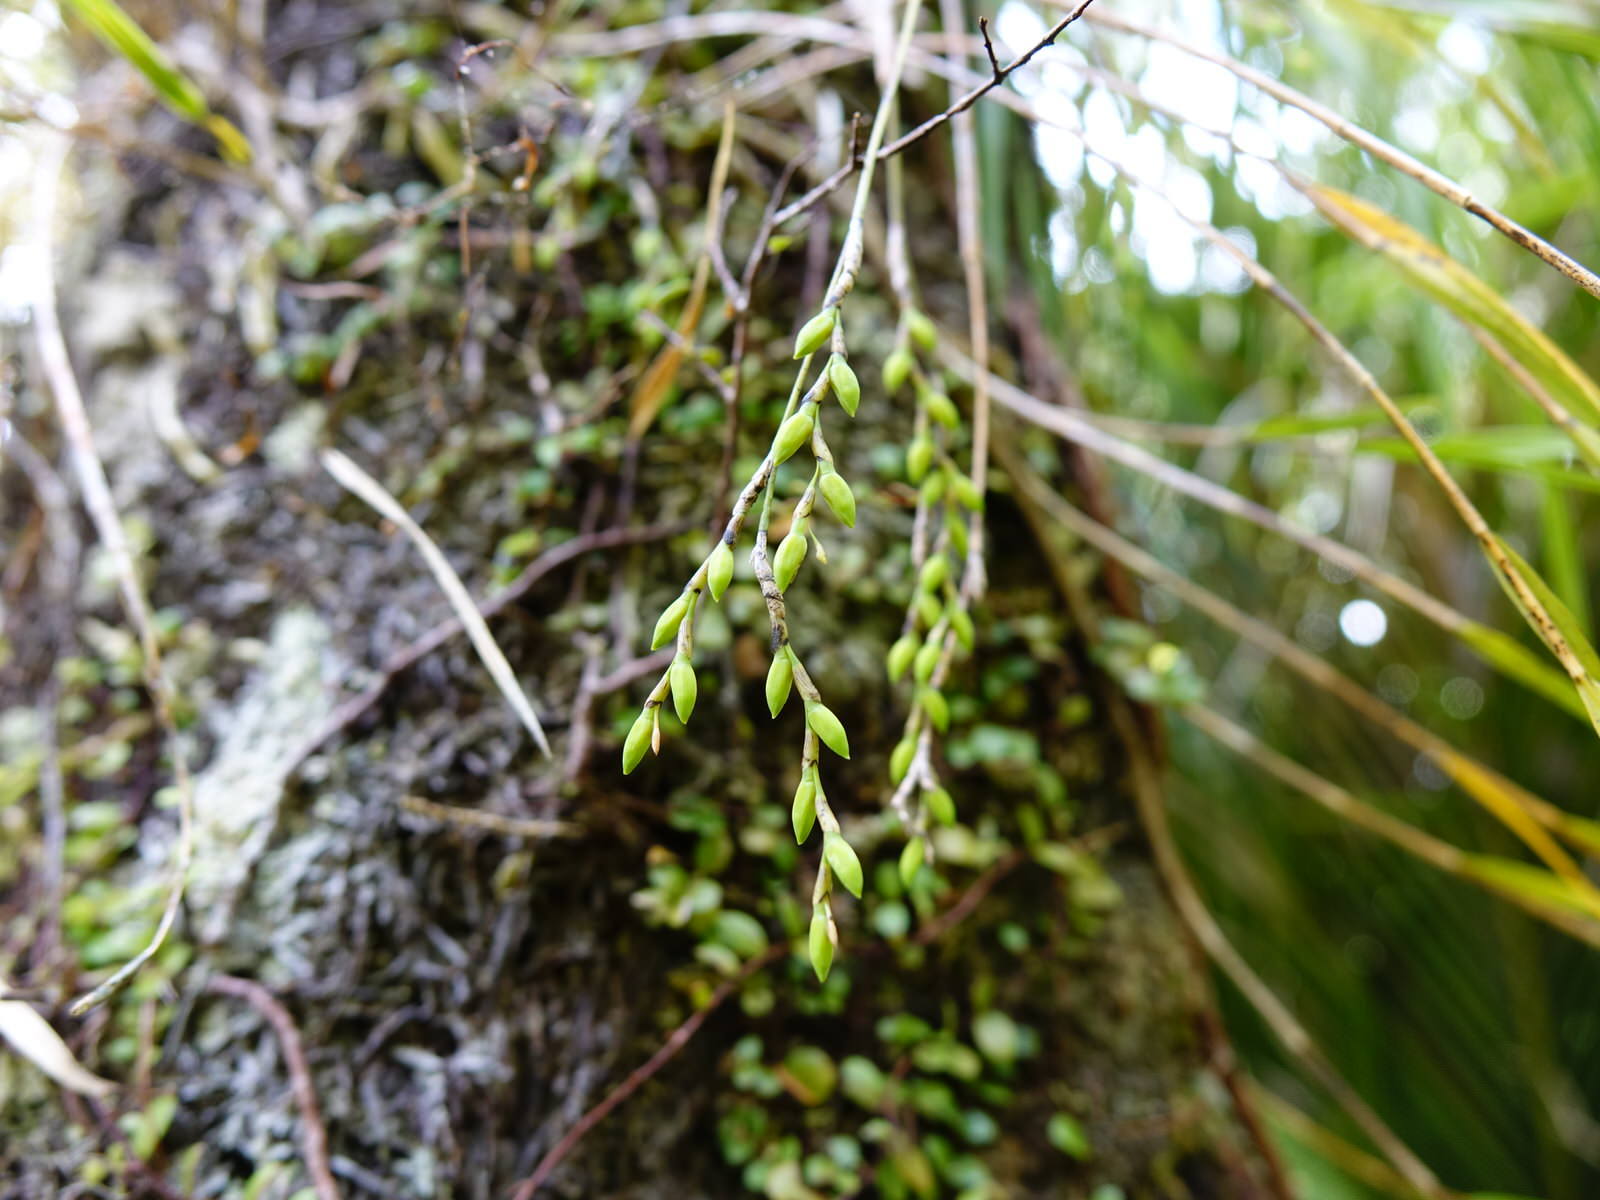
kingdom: Plantae
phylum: Tracheophyta
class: Liliopsida
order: Asparagales
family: Orchidaceae
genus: Earina
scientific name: Earina mucronata
